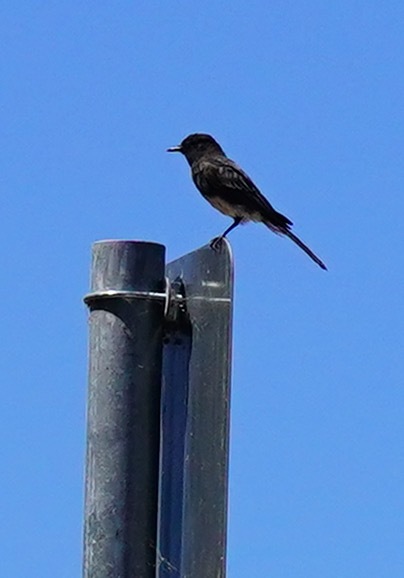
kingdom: Animalia
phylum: Chordata
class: Aves
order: Passeriformes
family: Tyrannidae
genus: Sayornis
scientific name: Sayornis nigricans
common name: Black phoebe
